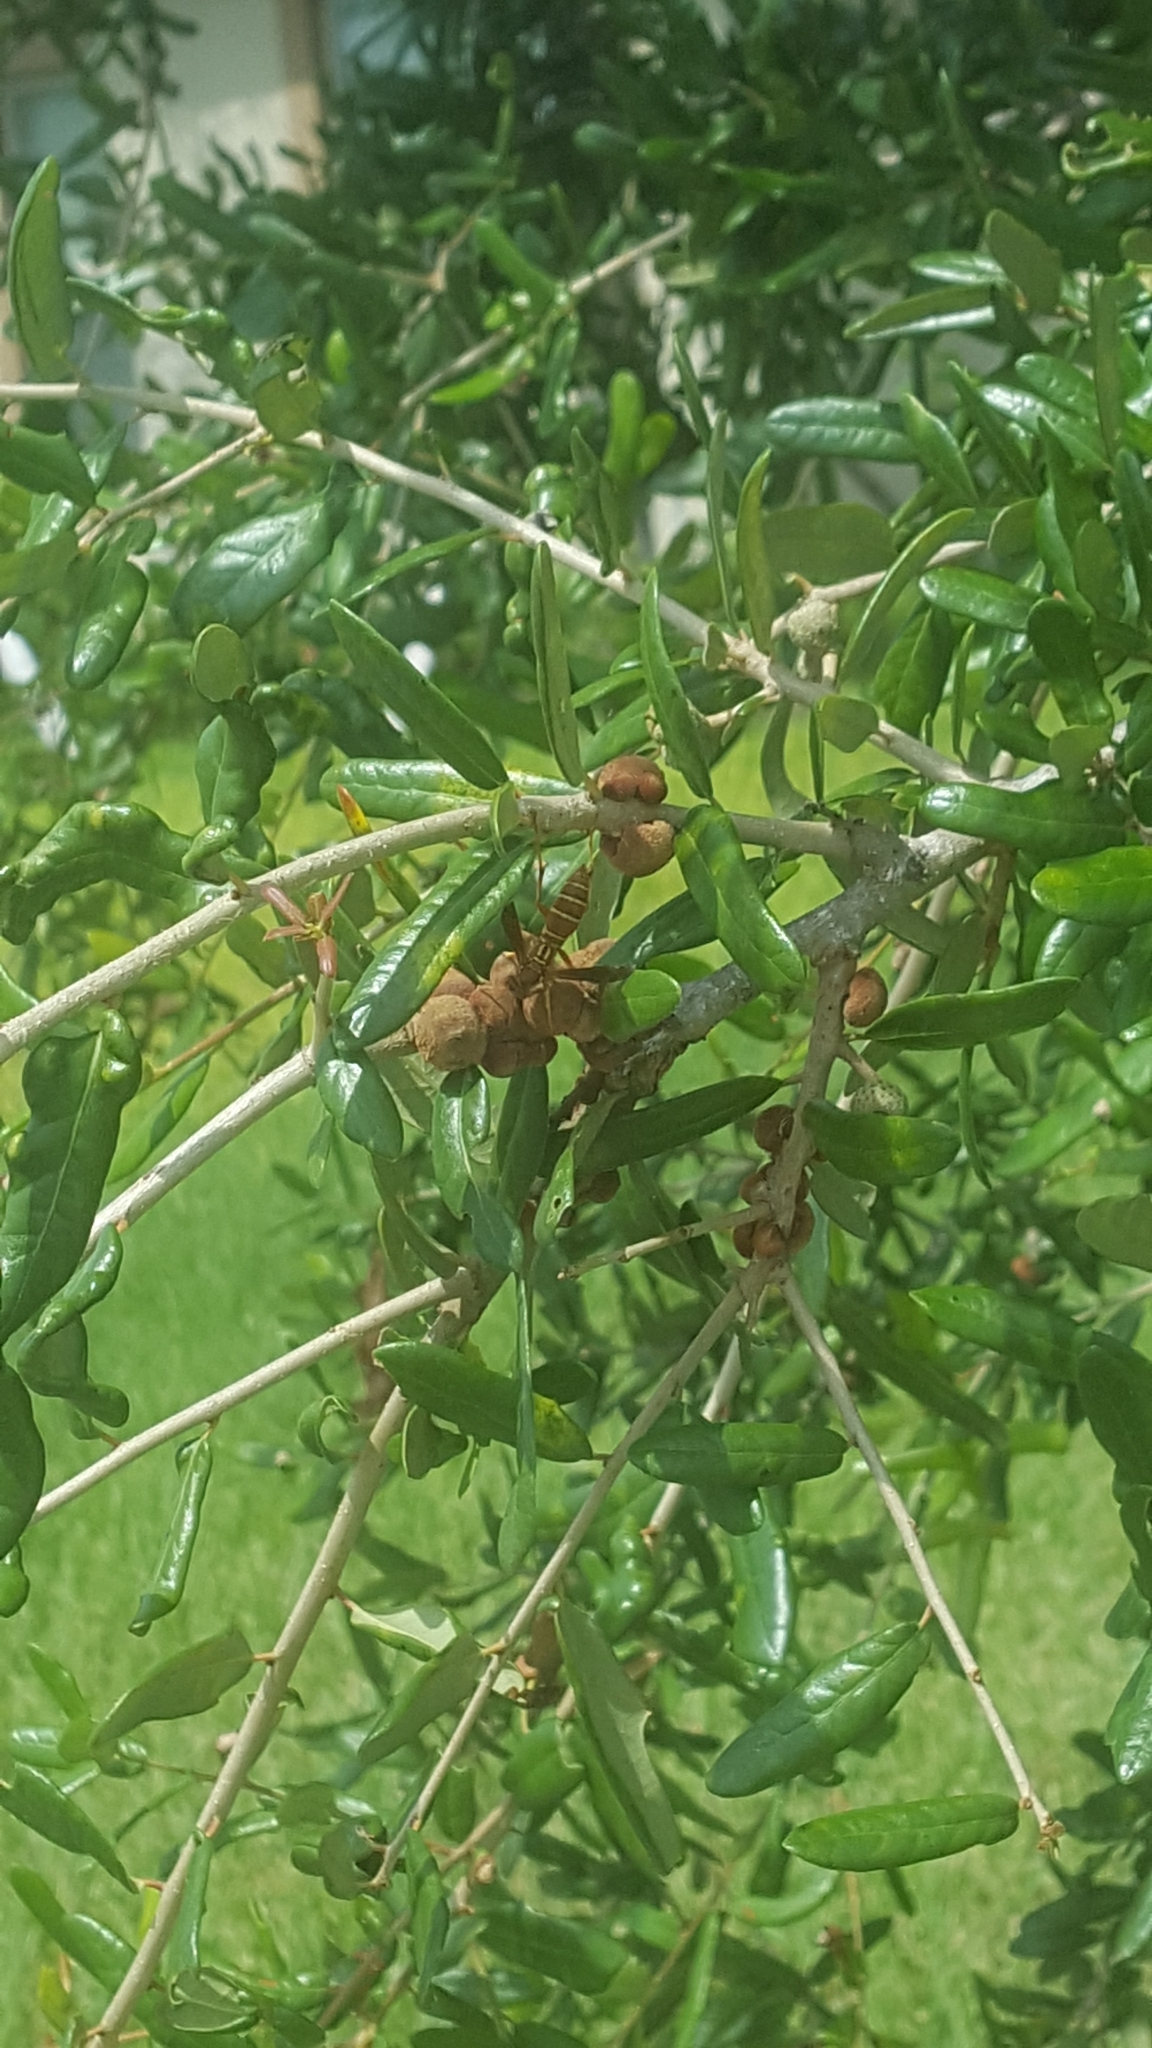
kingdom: Animalia
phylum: Arthropoda
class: Insecta
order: Hymenoptera
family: Vespidae
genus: Fuscopolistes
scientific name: Fuscopolistes
